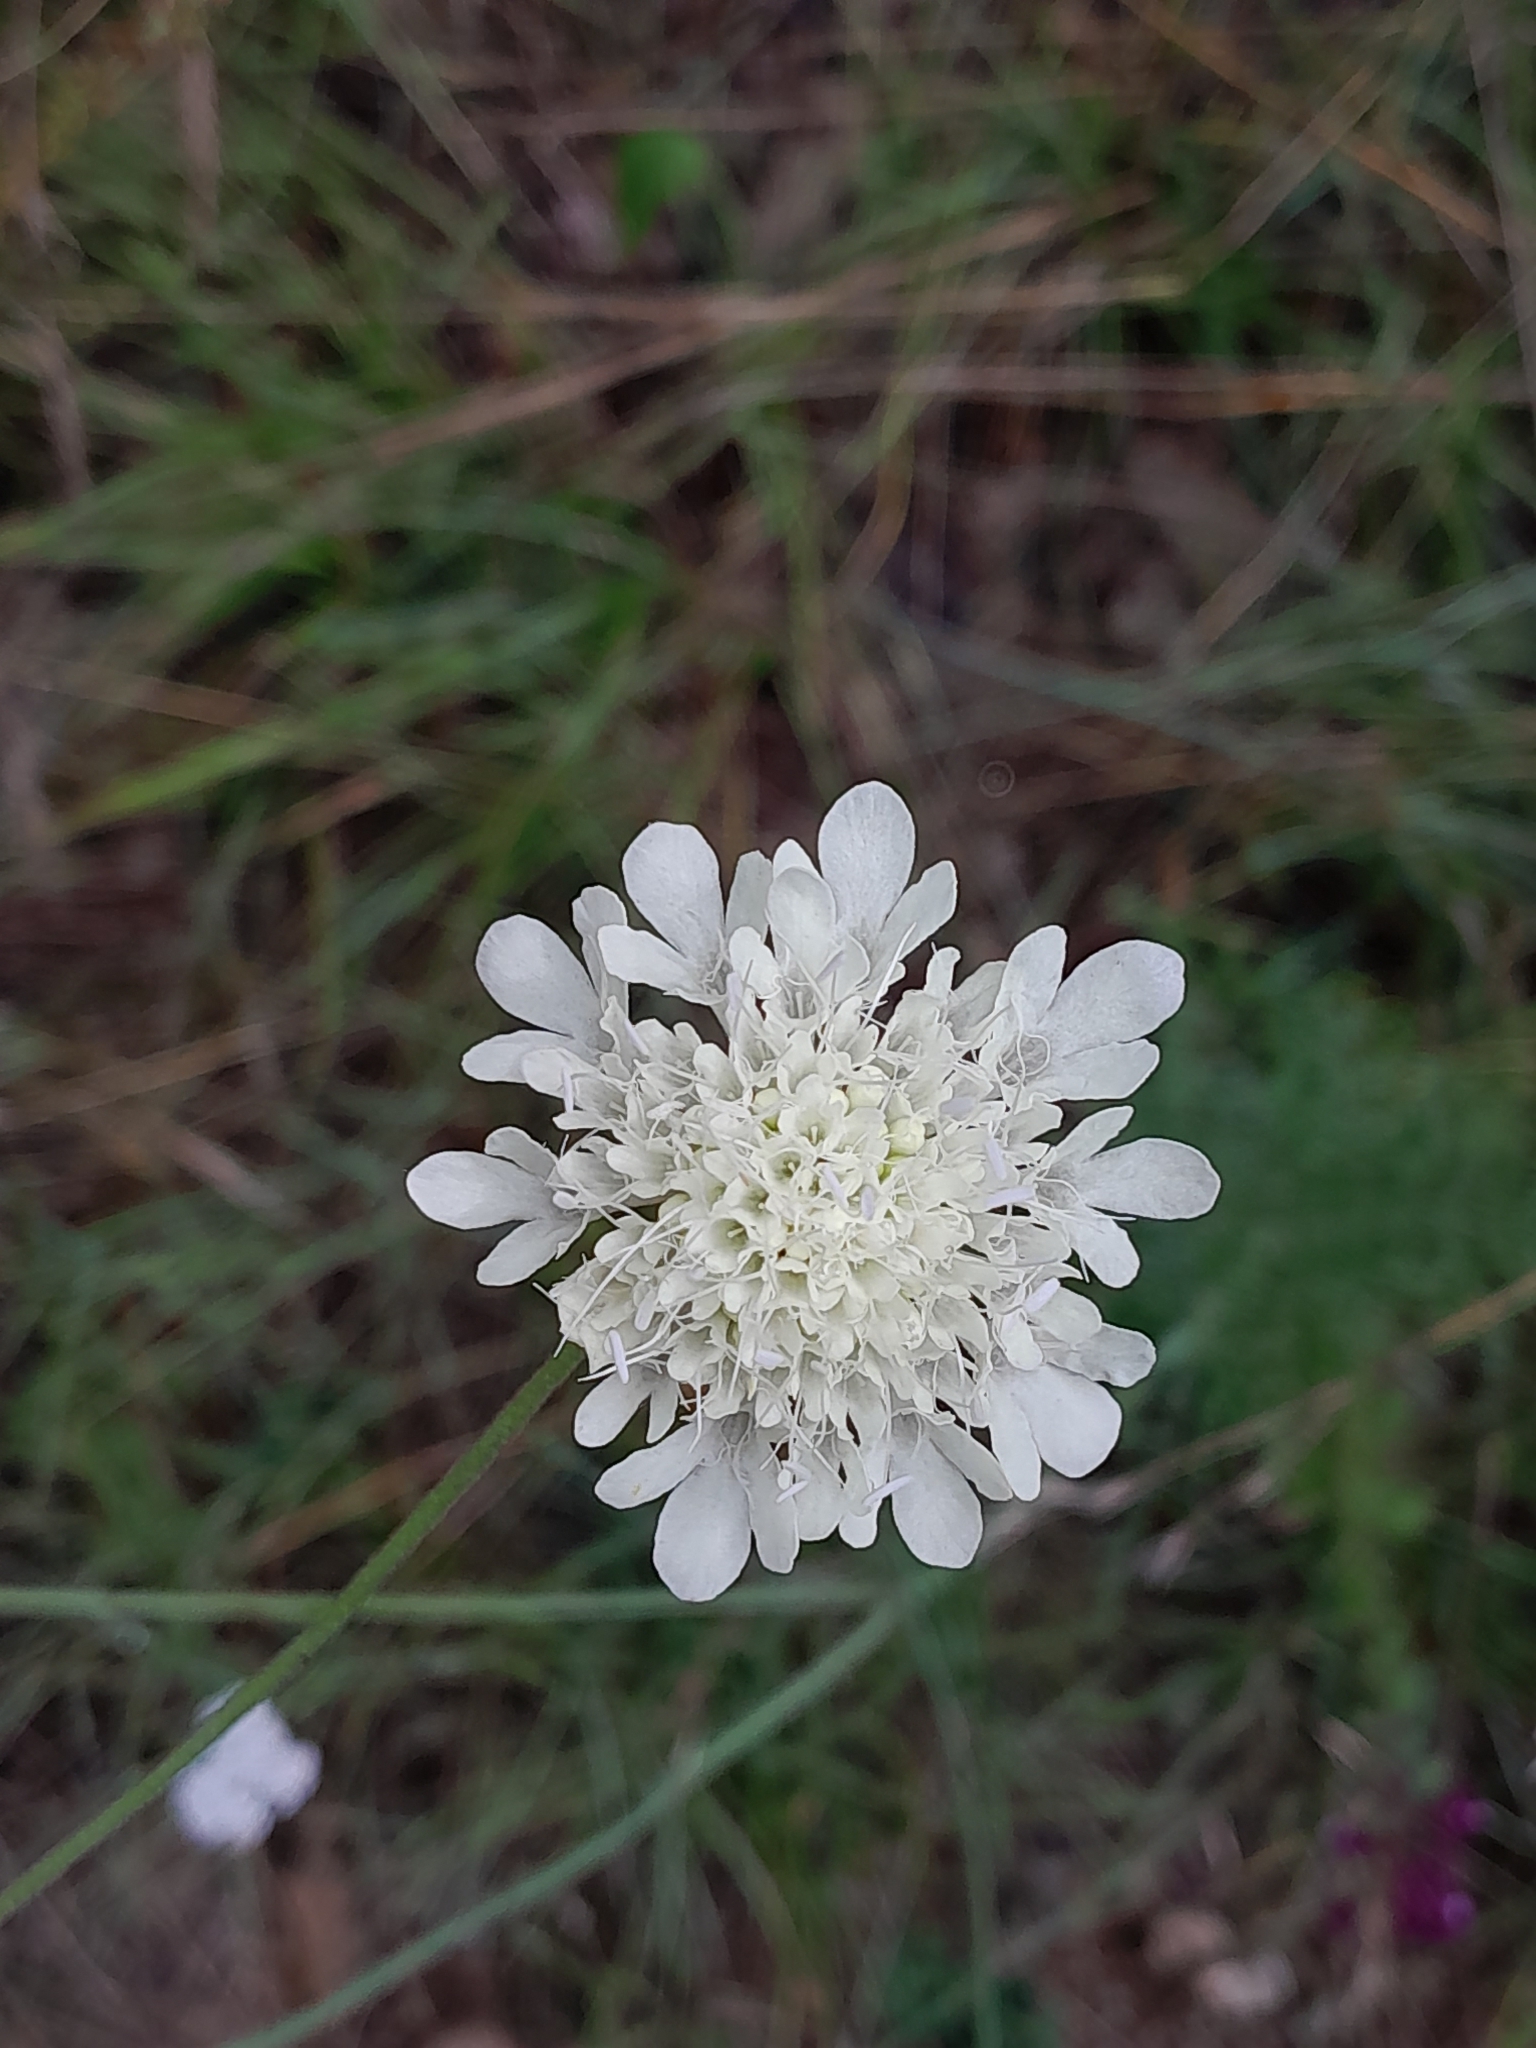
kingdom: Plantae
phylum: Tracheophyta
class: Magnoliopsida
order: Dipsacales
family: Caprifoliaceae
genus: Scabiosa
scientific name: Scabiosa ochroleuca
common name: Cream pincushions
